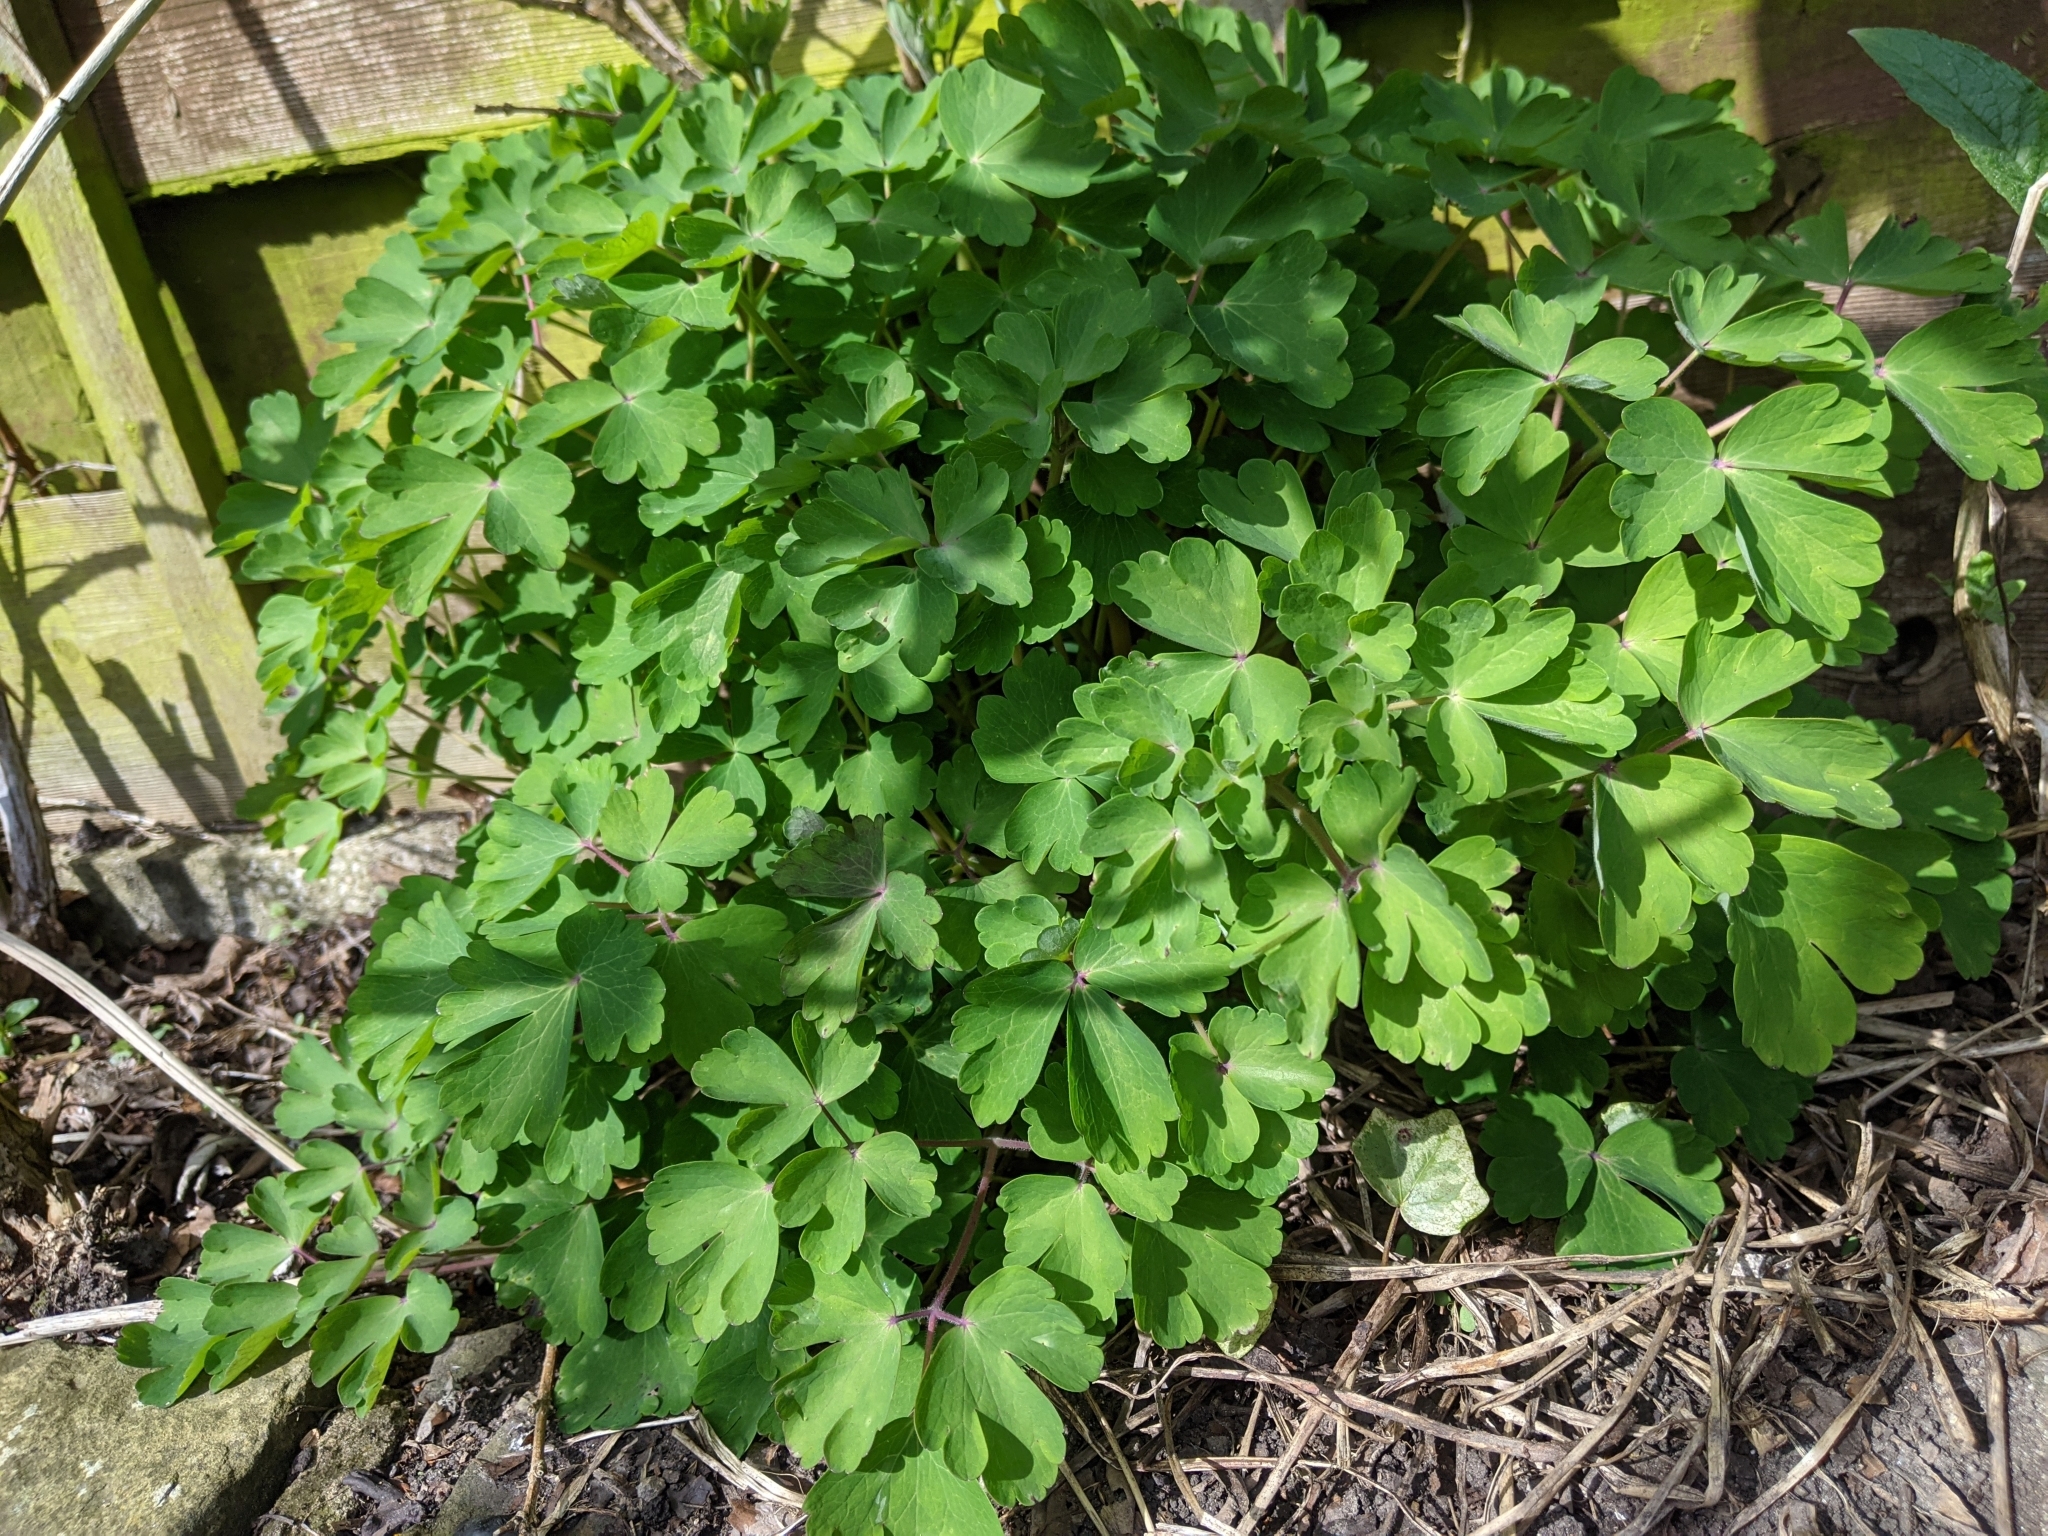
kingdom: Plantae
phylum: Tracheophyta
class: Magnoliopsida
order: Ranunculales
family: Ranunculaceae
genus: Aquilegia
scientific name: Aquilegia vulgaris
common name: Columbine
